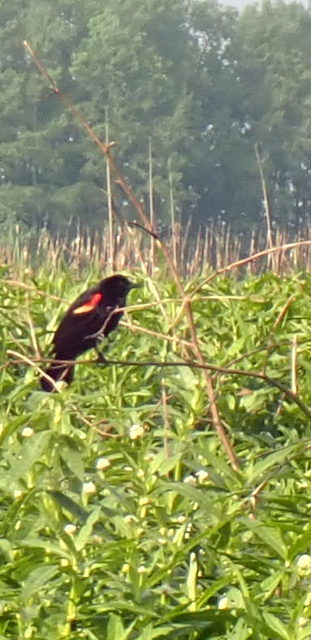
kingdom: Animalia
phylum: Chordata
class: Aves
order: Passeriformes
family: Icteridae
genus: Agelaius
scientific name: Agelaius phoeniceus
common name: Red-winged blackbird
